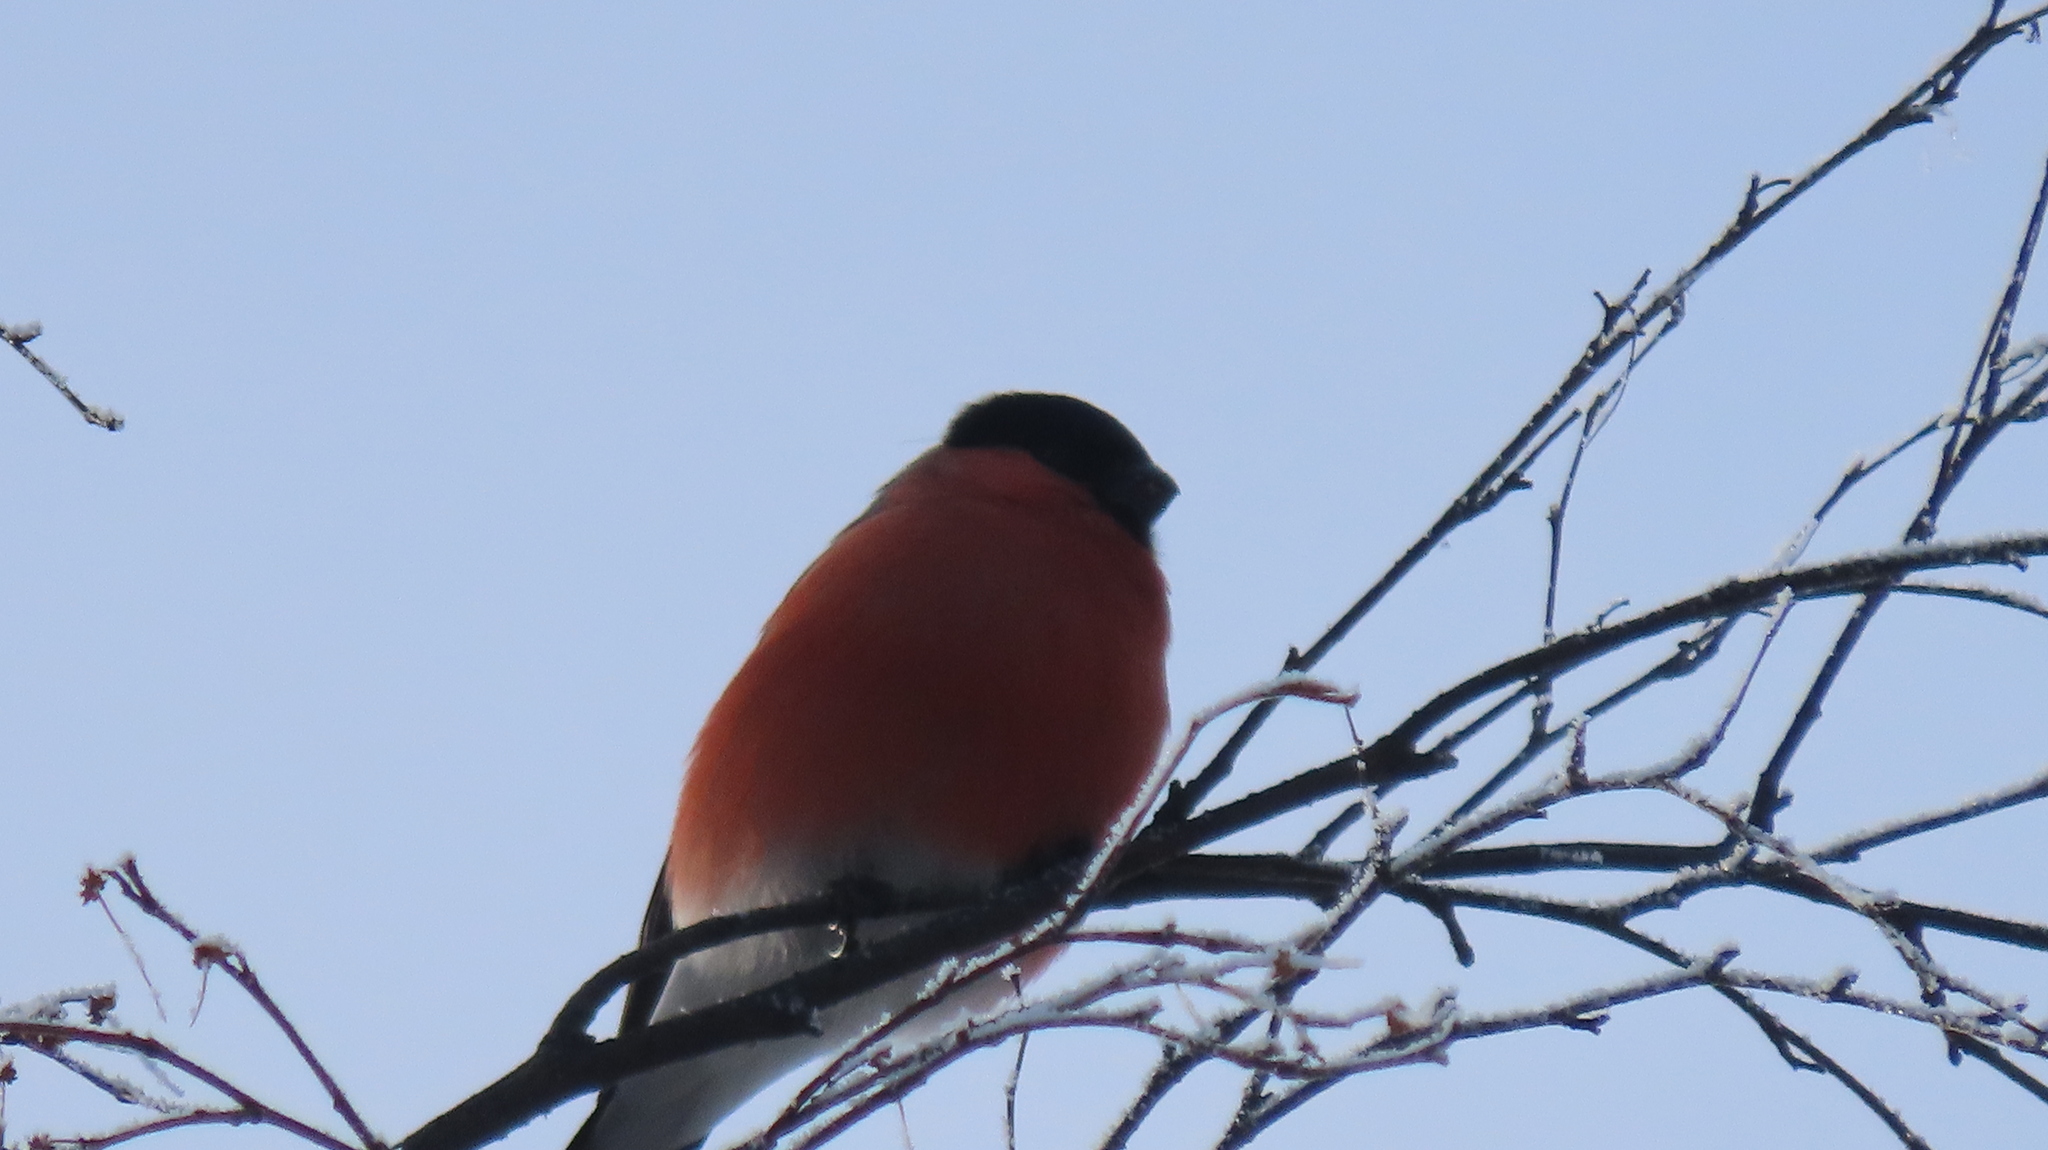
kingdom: Animalia
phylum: Chordata
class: Aves
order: Passeriformes
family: Fringillidae
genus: Pyrrhula
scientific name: Pyrrhula pyrrhula
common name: Eurasian bullfinch
